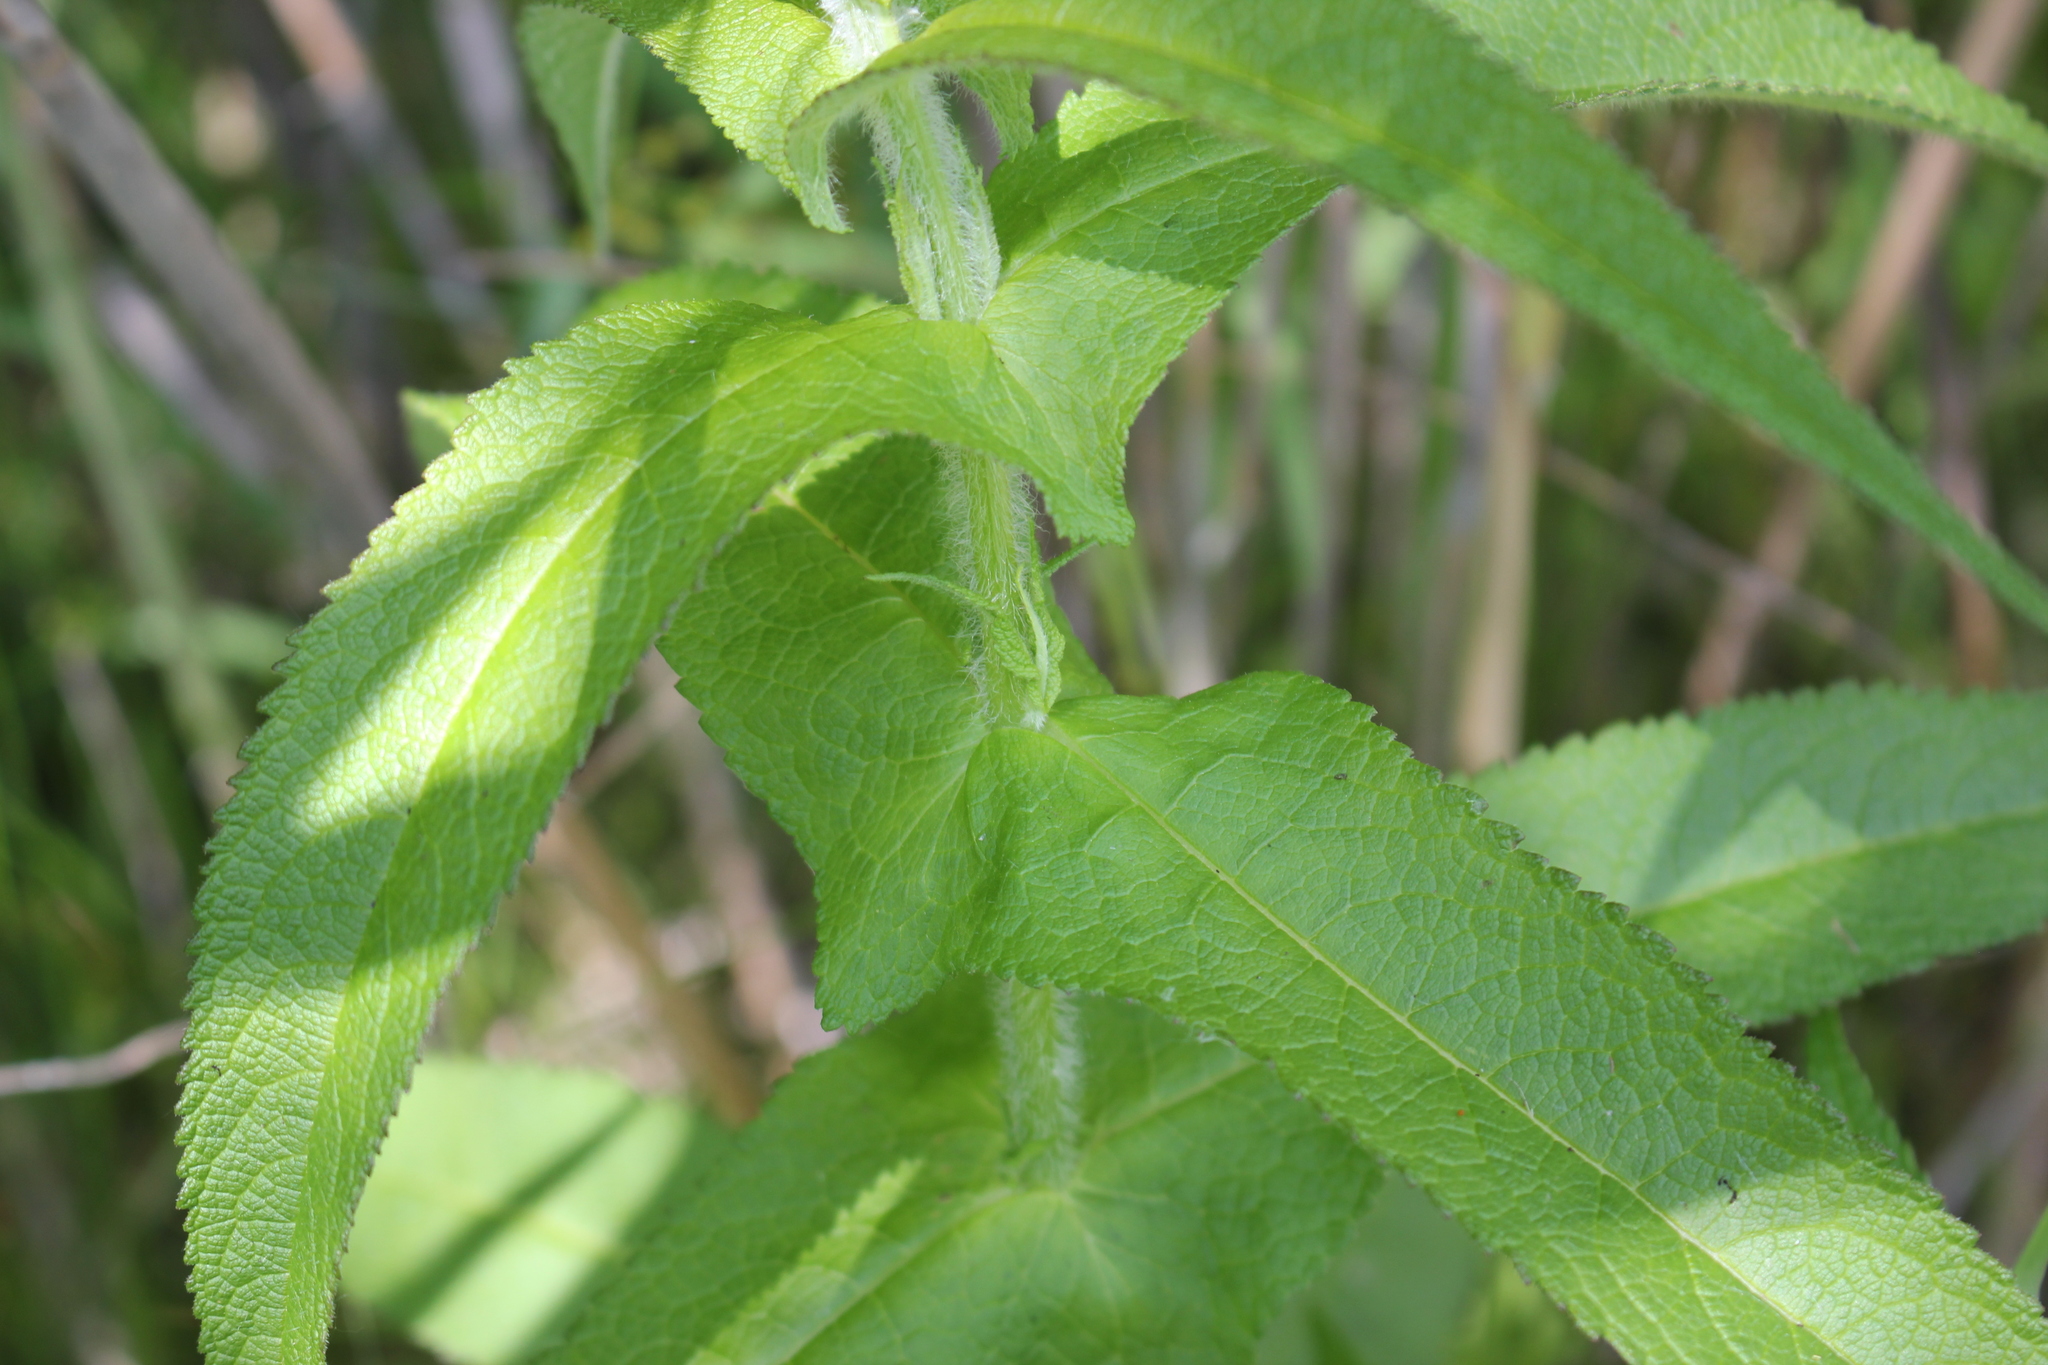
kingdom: Plantae
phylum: Tracheophyta
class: Magnoliopsida
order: Asterales
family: Asteraceae
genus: Eupatorium
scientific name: Eupatorium perfoliatum
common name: Boneset
